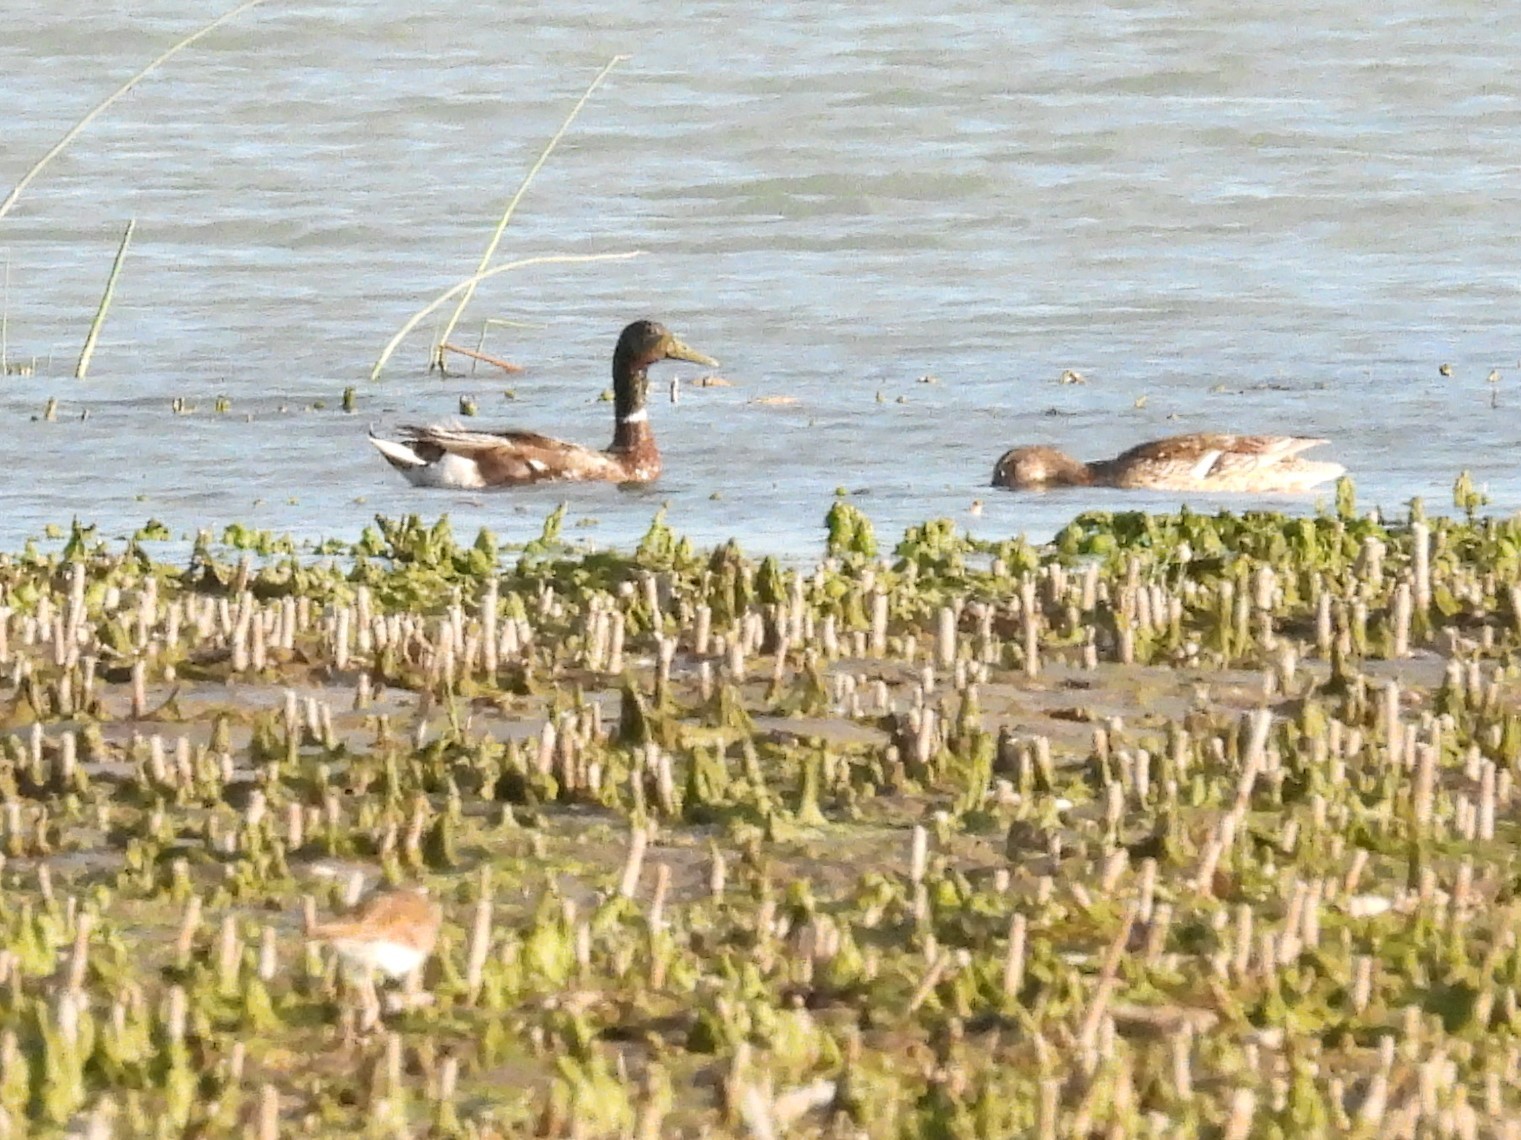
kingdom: Animalia
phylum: Chordata
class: Aves
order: Anseriformes
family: Anatidae
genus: Anas
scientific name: Anas platyrhynchos
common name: Mallard
